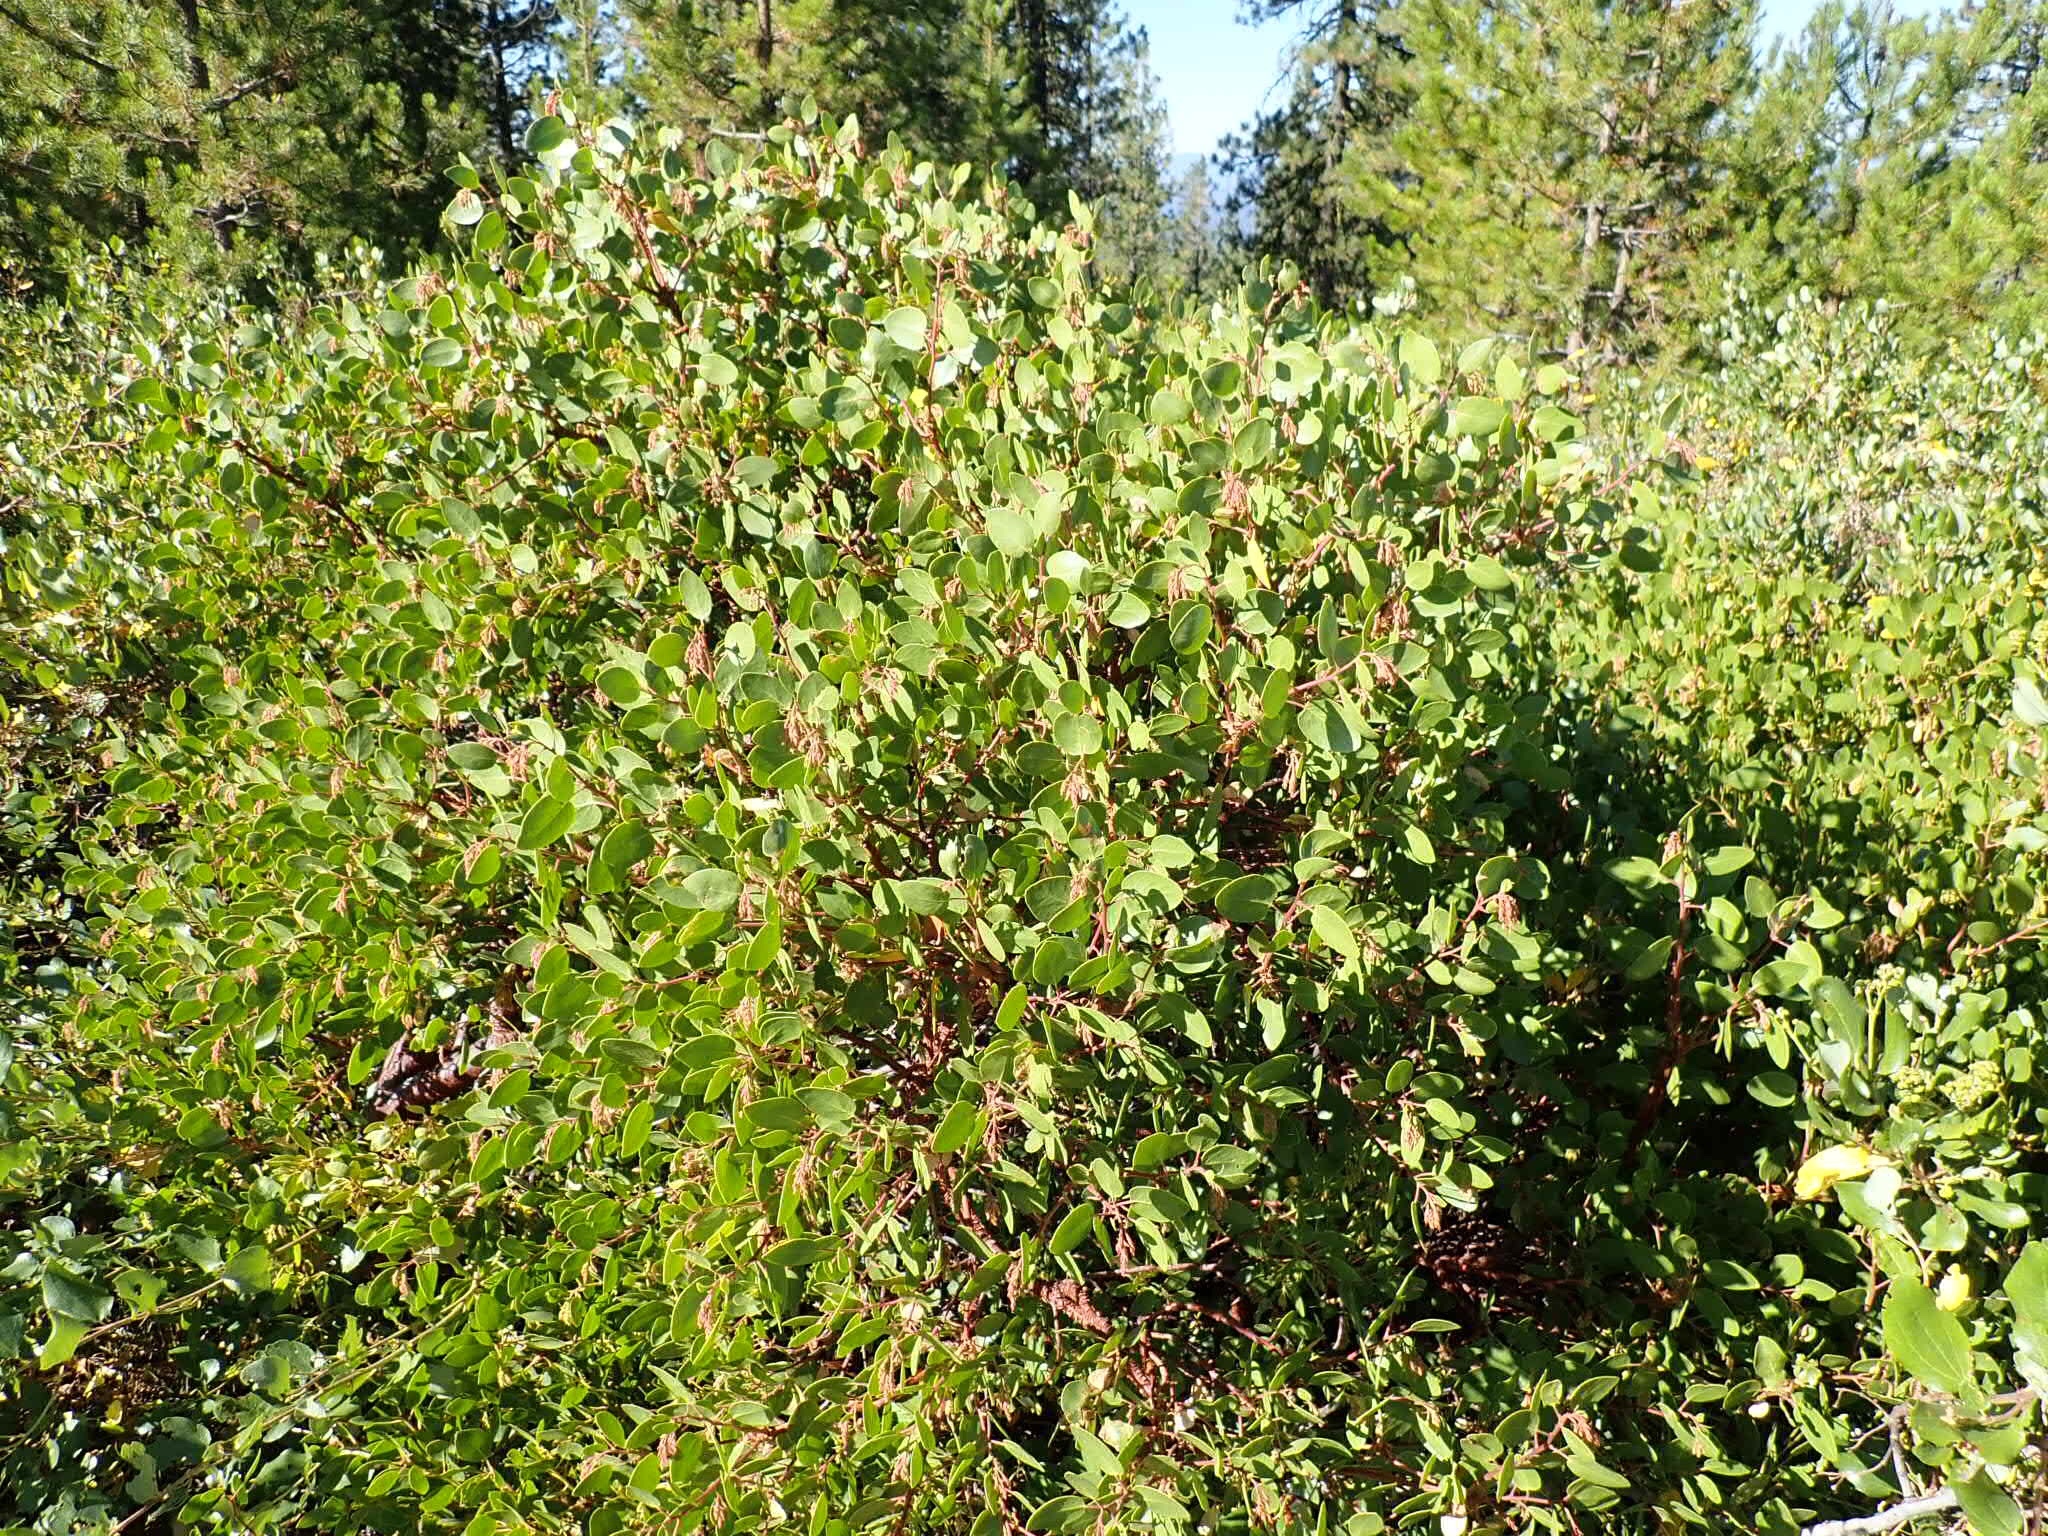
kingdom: Plantae
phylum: Tracheophyta
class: Magnoliopsida
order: Ericales
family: Ericaceae
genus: Arctostaphylos
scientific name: Arctostaphylos patula
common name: Green-leaf manzanita
